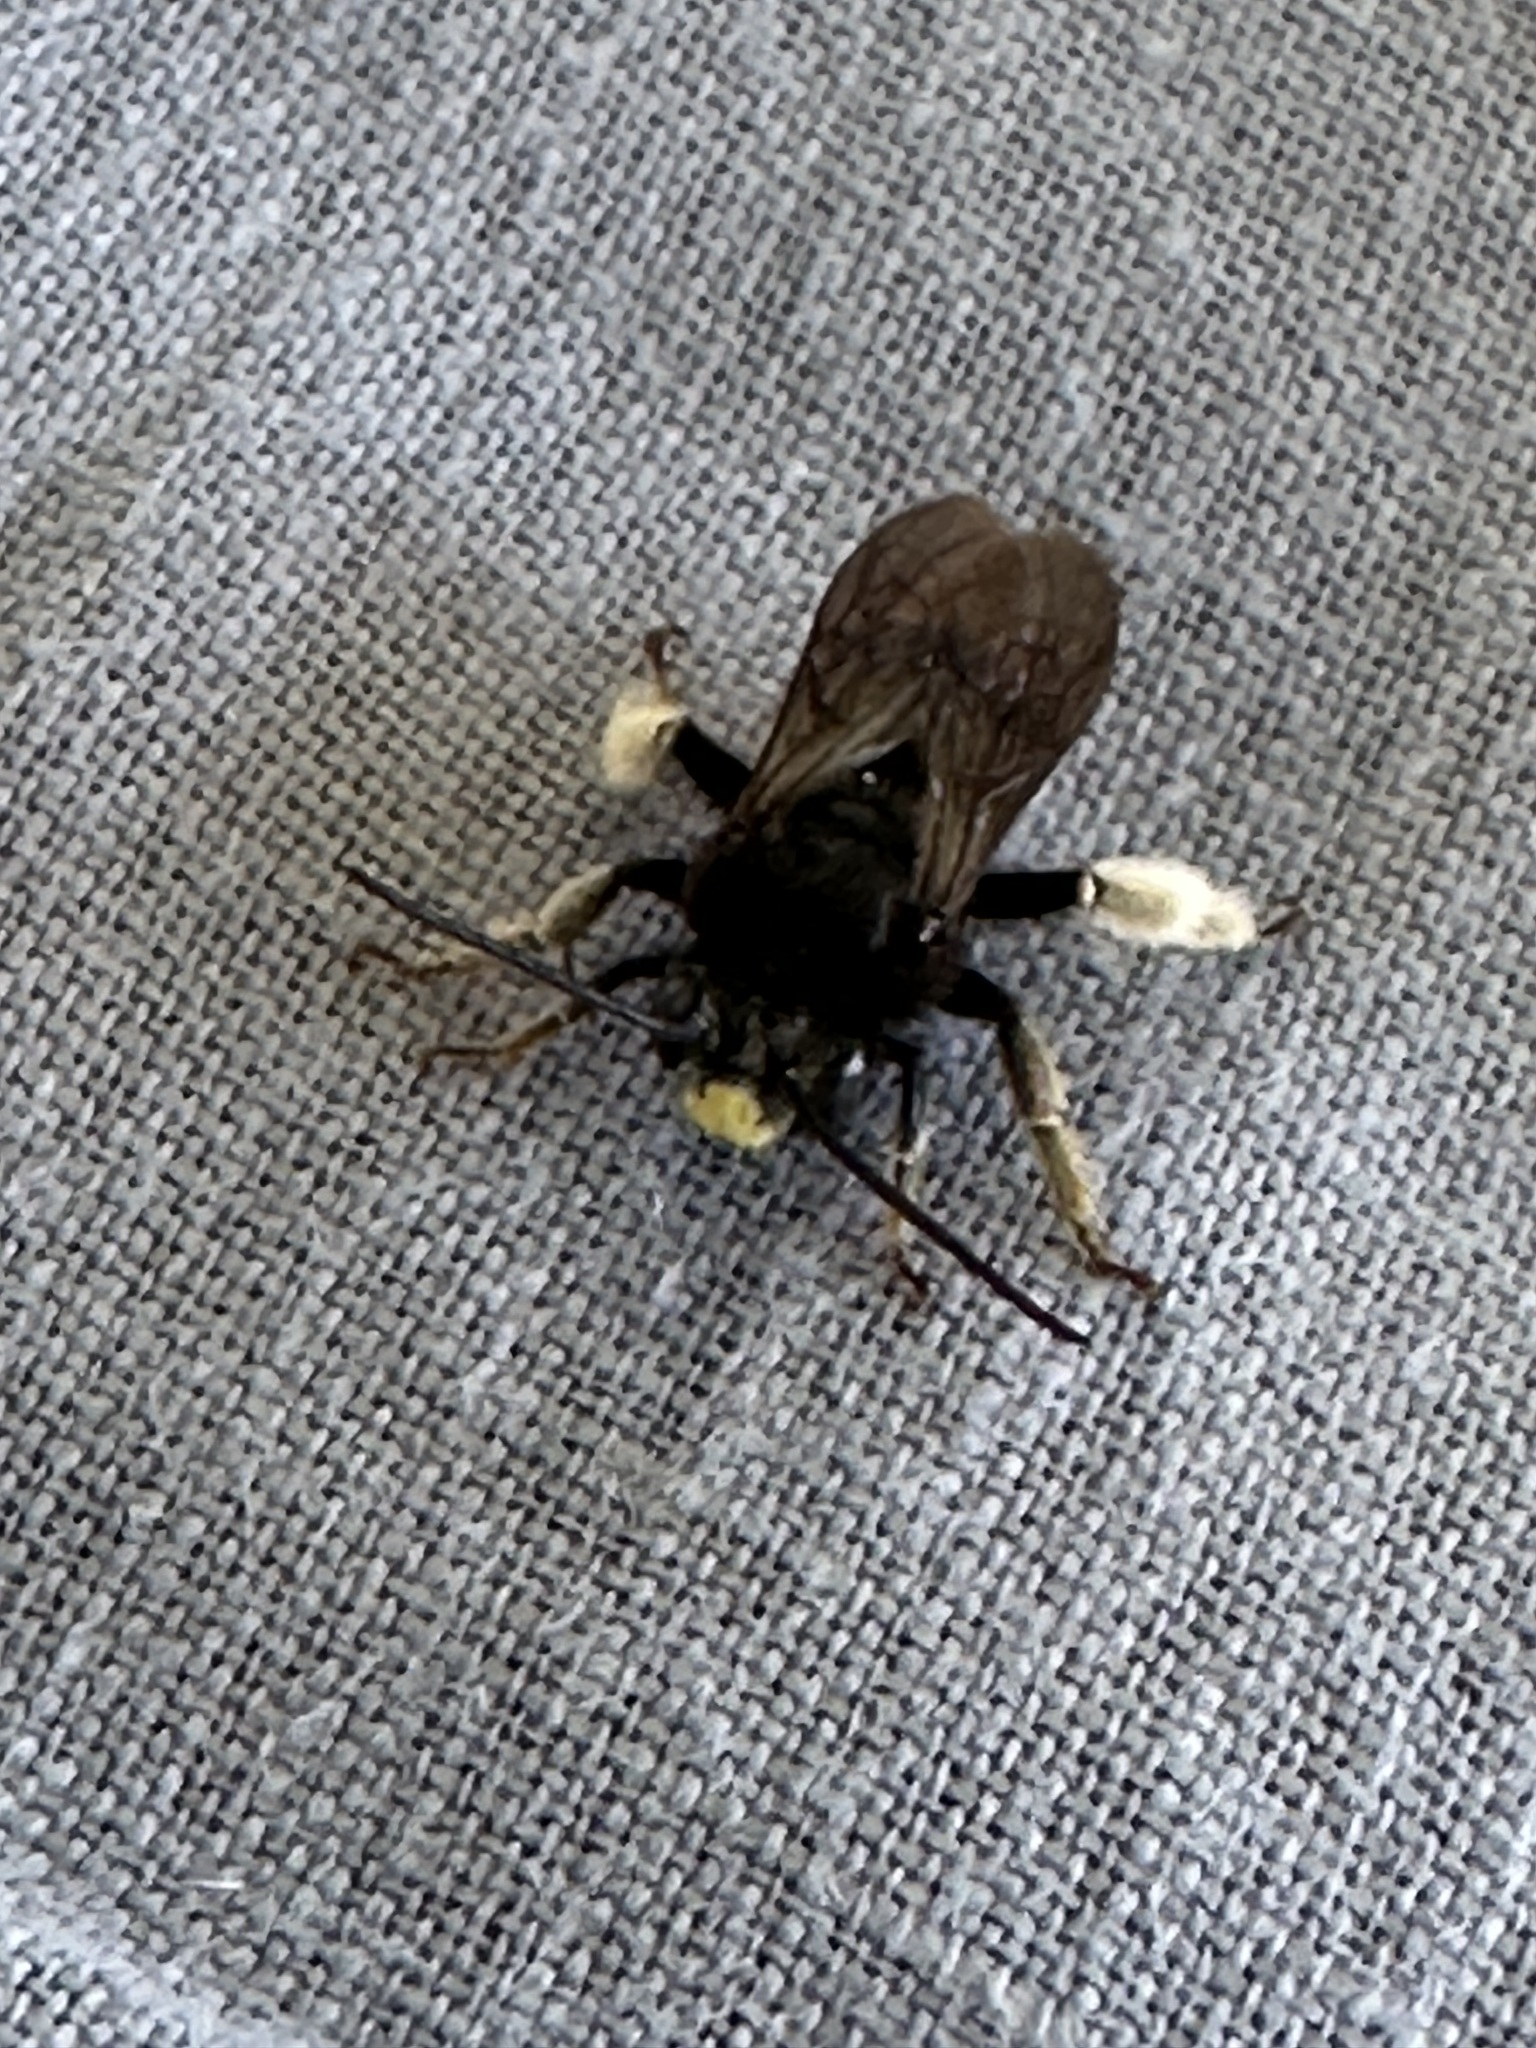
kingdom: Animalia
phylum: Arthropoda
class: Insecta
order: Hymenoptera
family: Apidae
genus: Melissodes
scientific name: Melissodes bimaculatus
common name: Two-spotted long-horned bee
